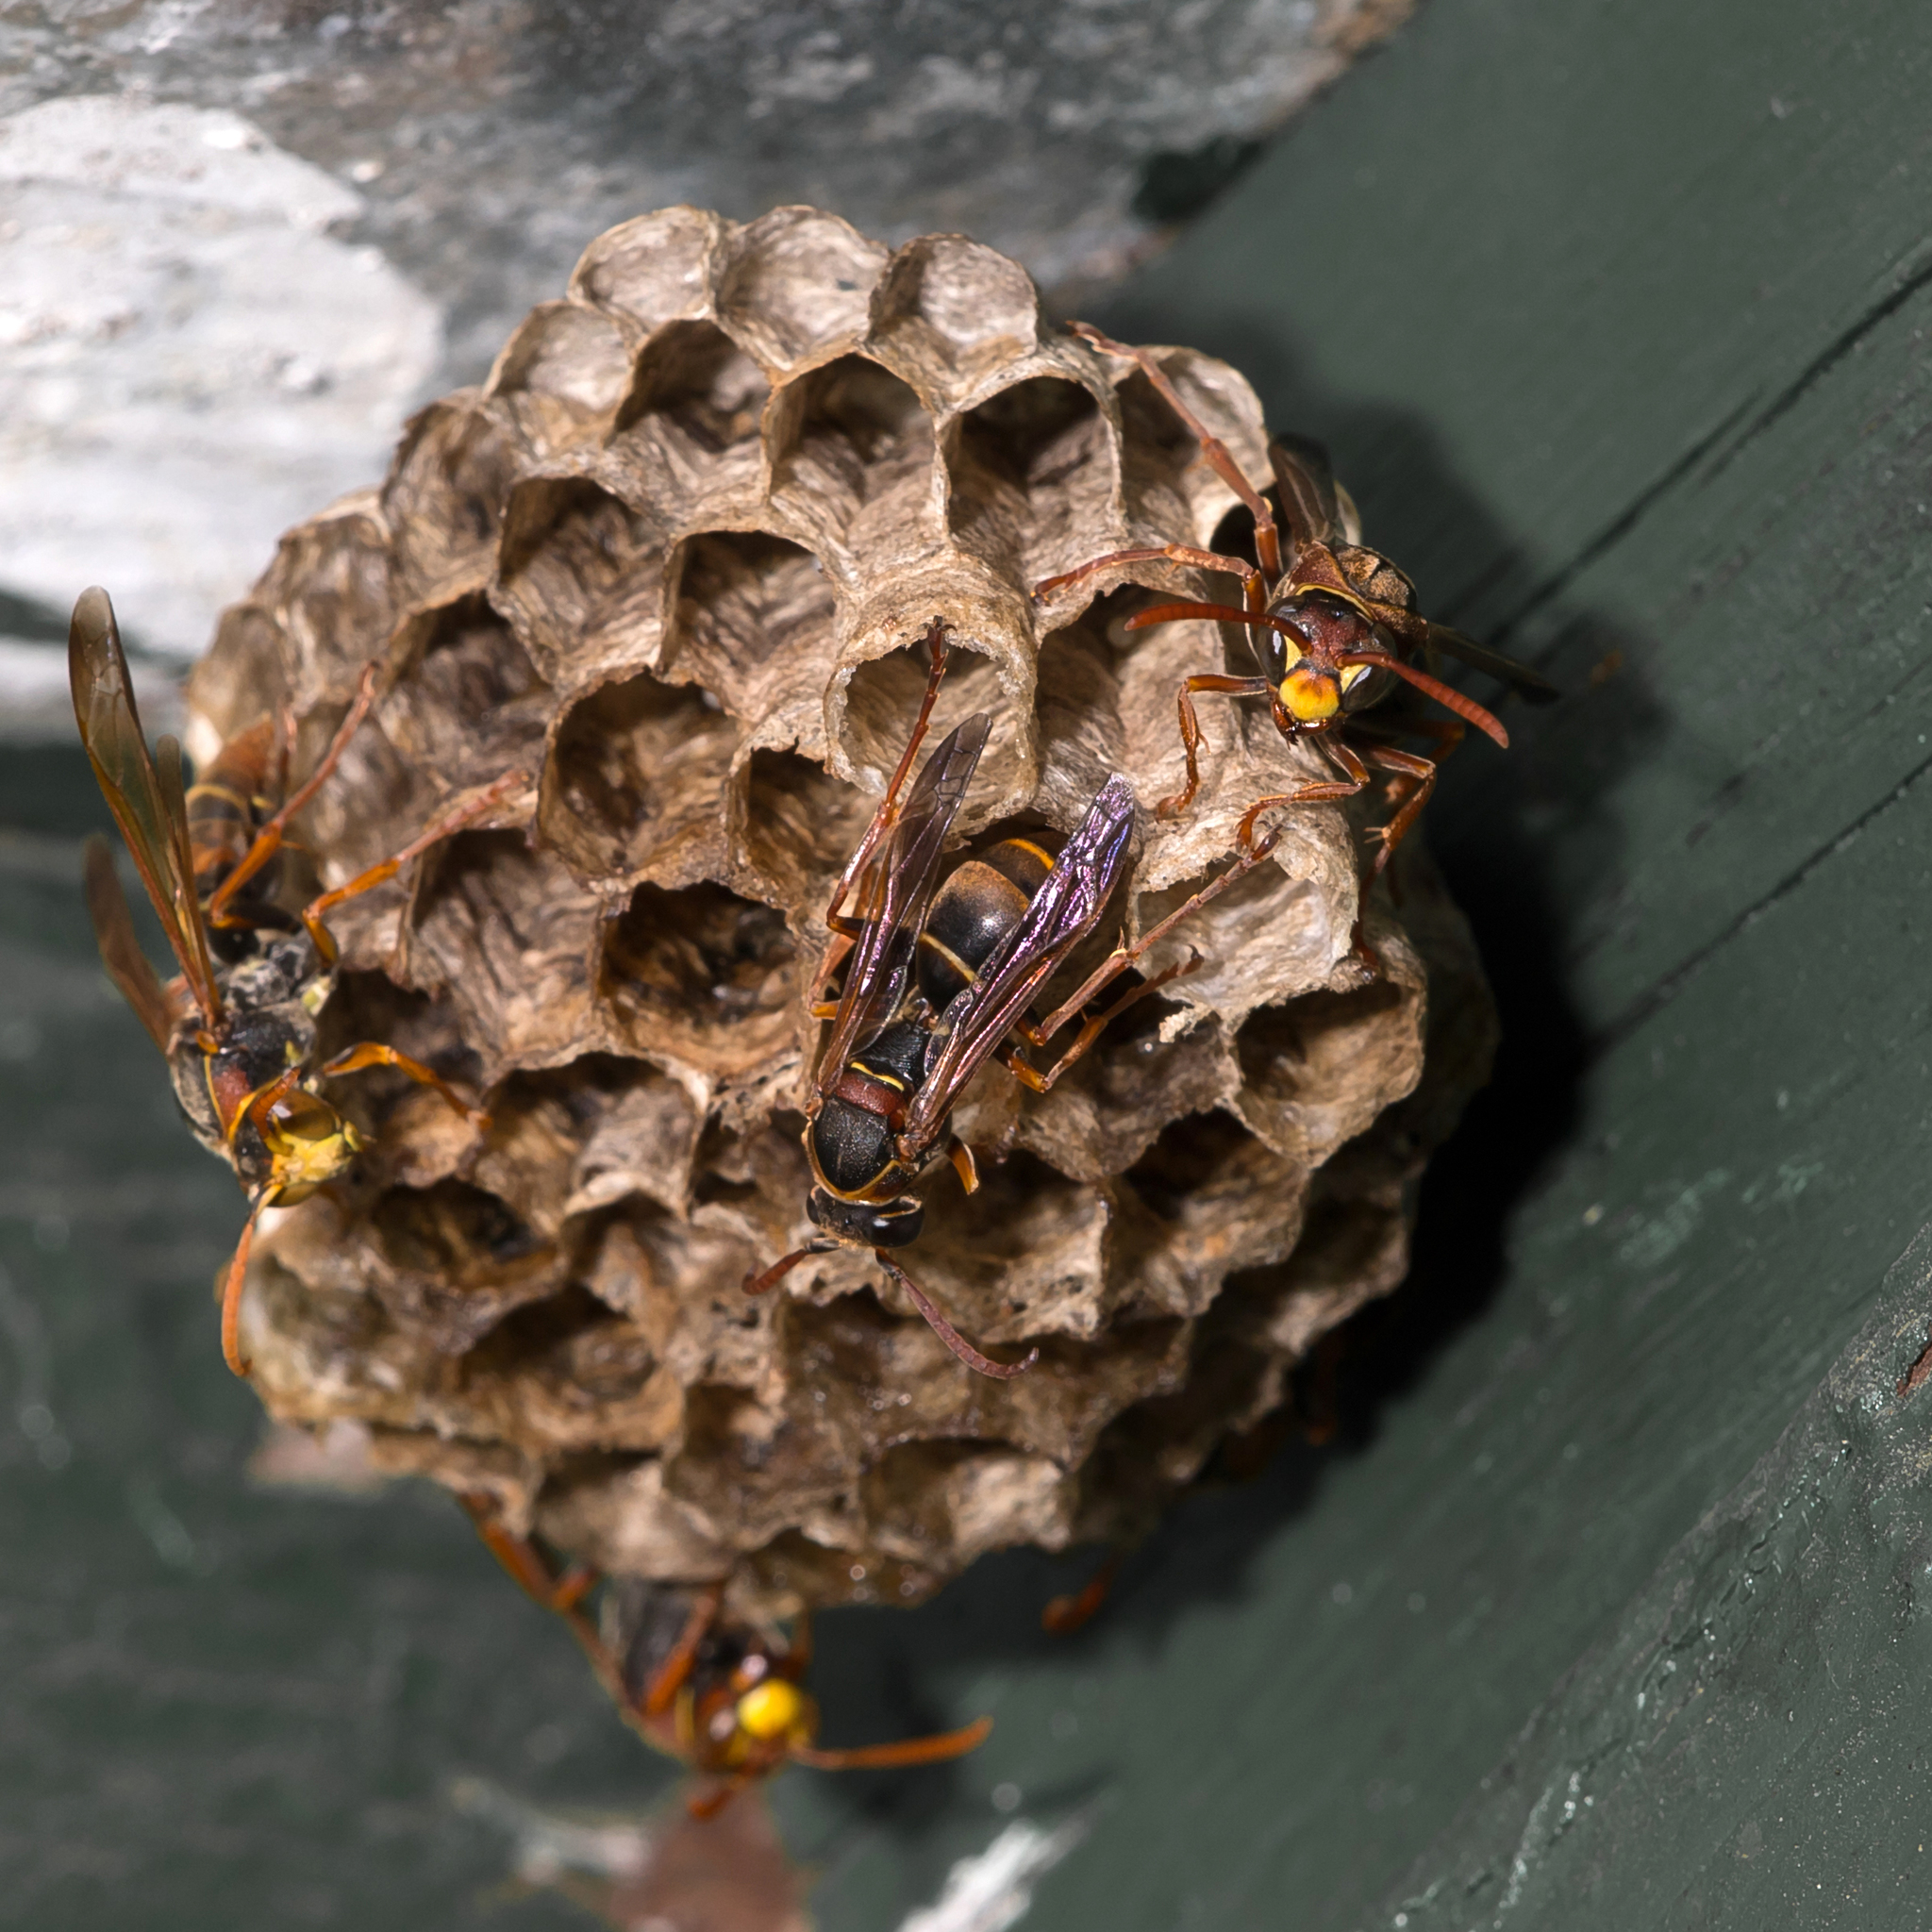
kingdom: Animalia
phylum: Arthropoda
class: Insecta
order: Hymenoptera
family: Eumenidae
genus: Polistes
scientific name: Polistes humilis
